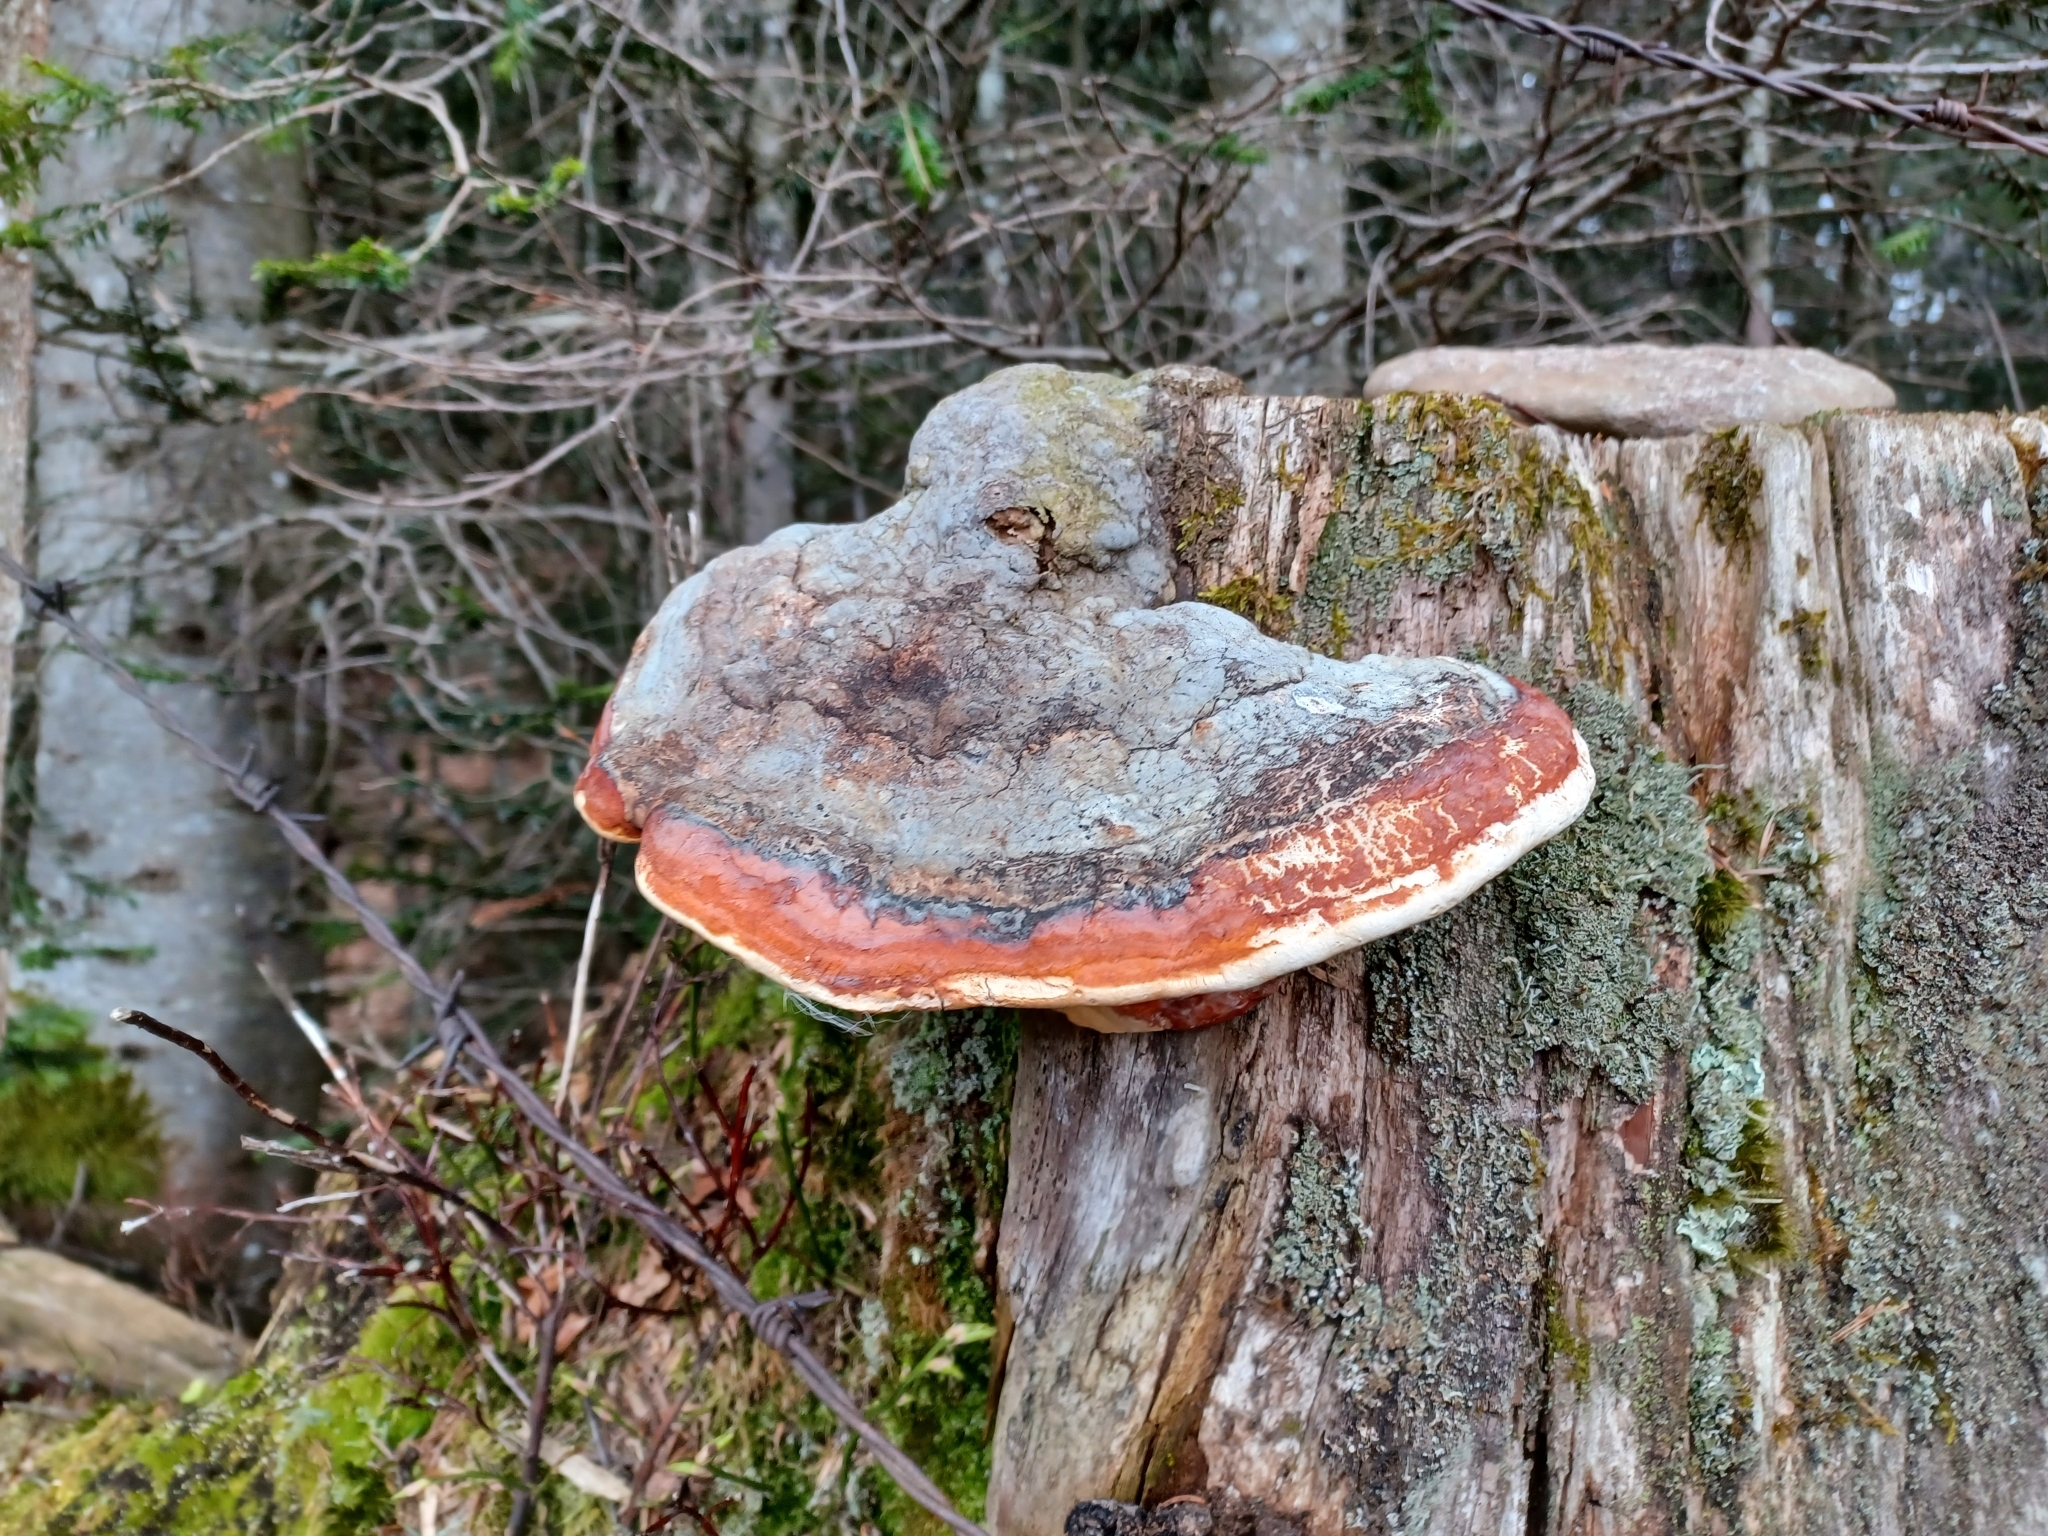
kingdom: Fungi
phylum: Basidiomycota
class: Agaricomycetes
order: Polyporales
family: Fomitopsidaceae
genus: Fomitopsis
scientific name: Fomitopsis pinicola
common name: Red-belted bracket
